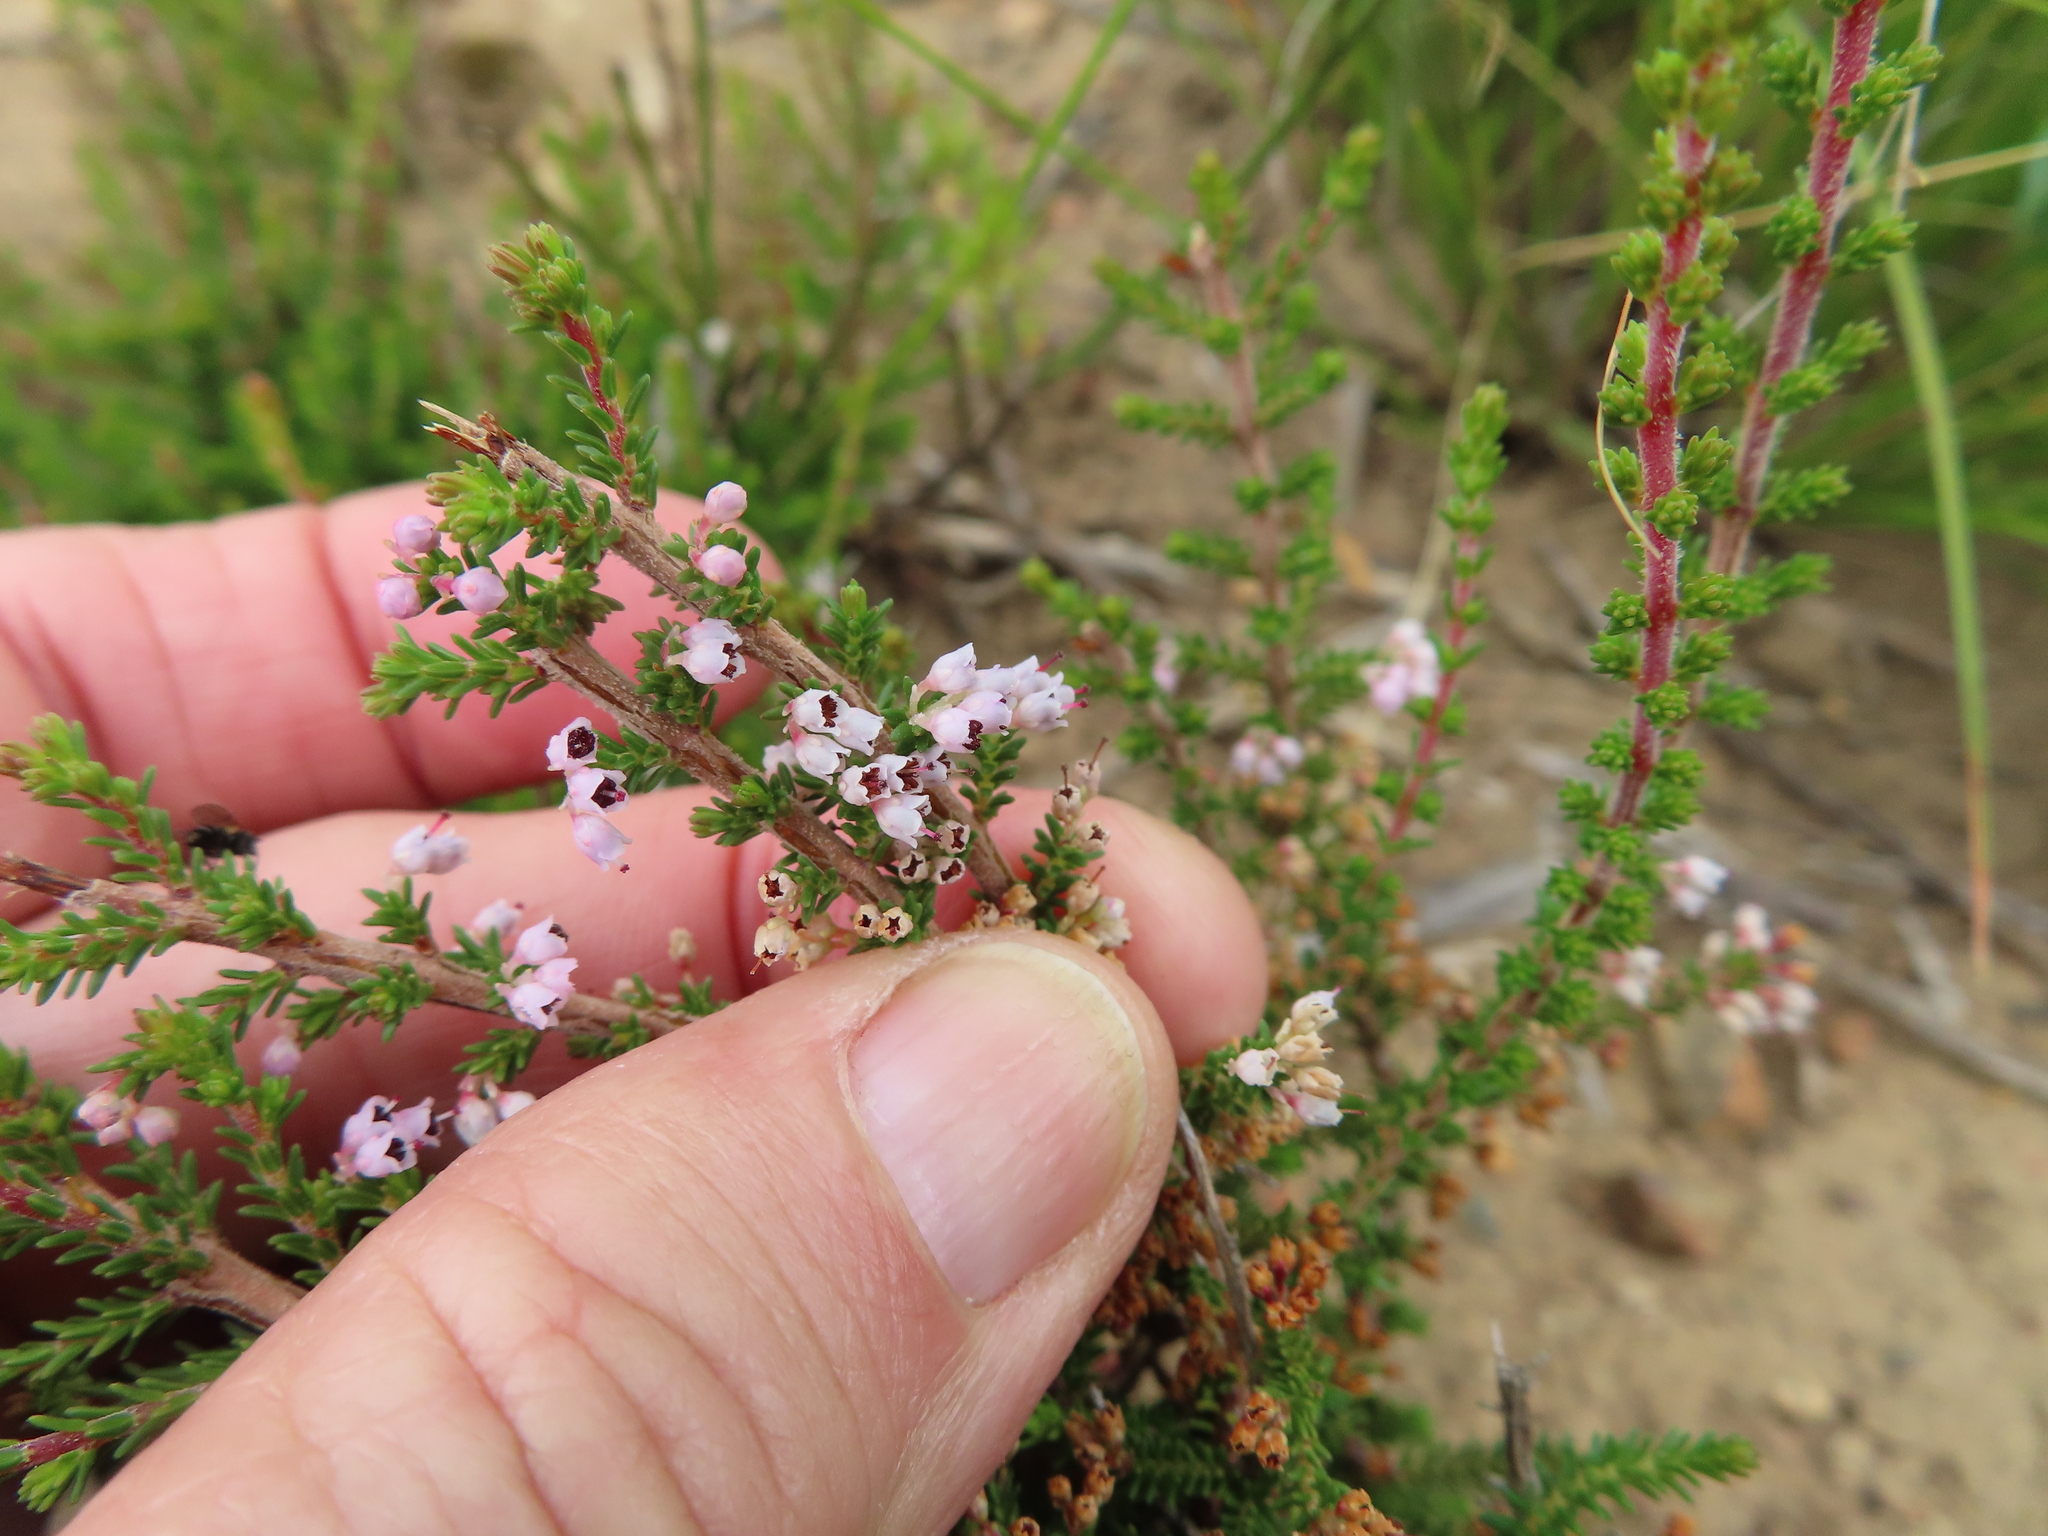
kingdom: Plantae
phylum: Tracheophyta
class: Magnoliopsida
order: Ericales
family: Ericaceae
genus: Erica
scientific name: Erica quadrangularis
